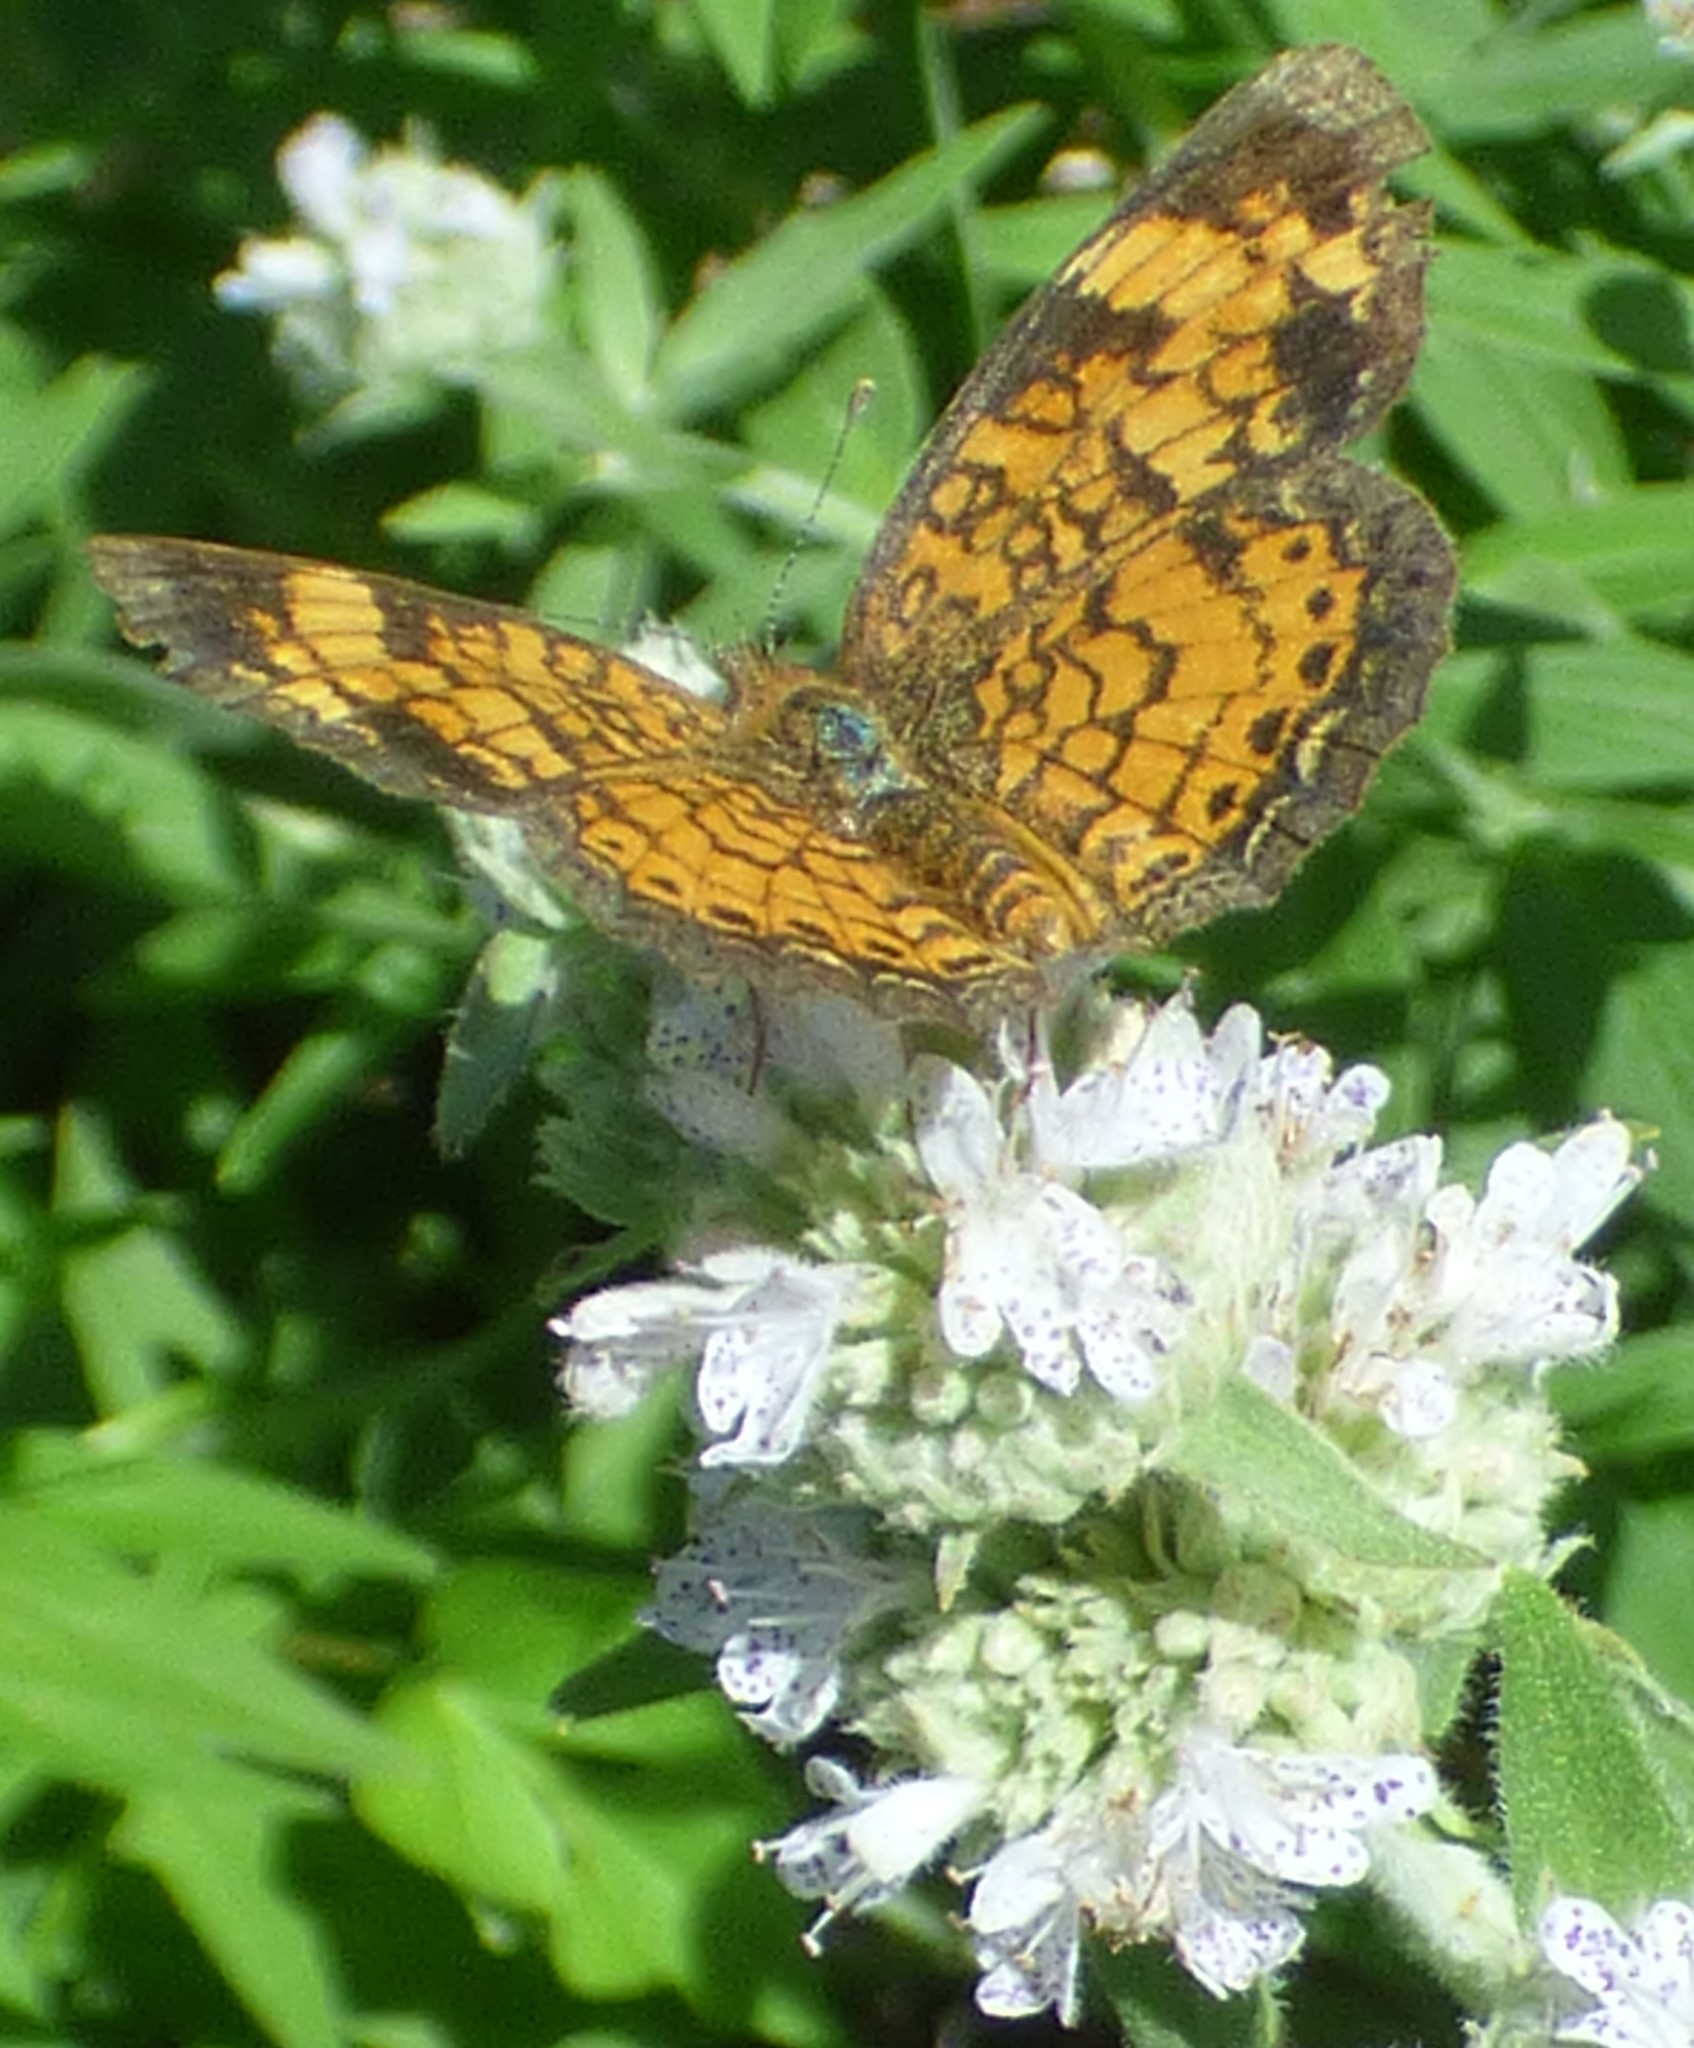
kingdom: Animalia
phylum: Arthropoda
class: Insecta
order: Lepidoptera
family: Nymphalidae
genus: Phyciodes
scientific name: Phyciodes tharos
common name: Pearl crescent
